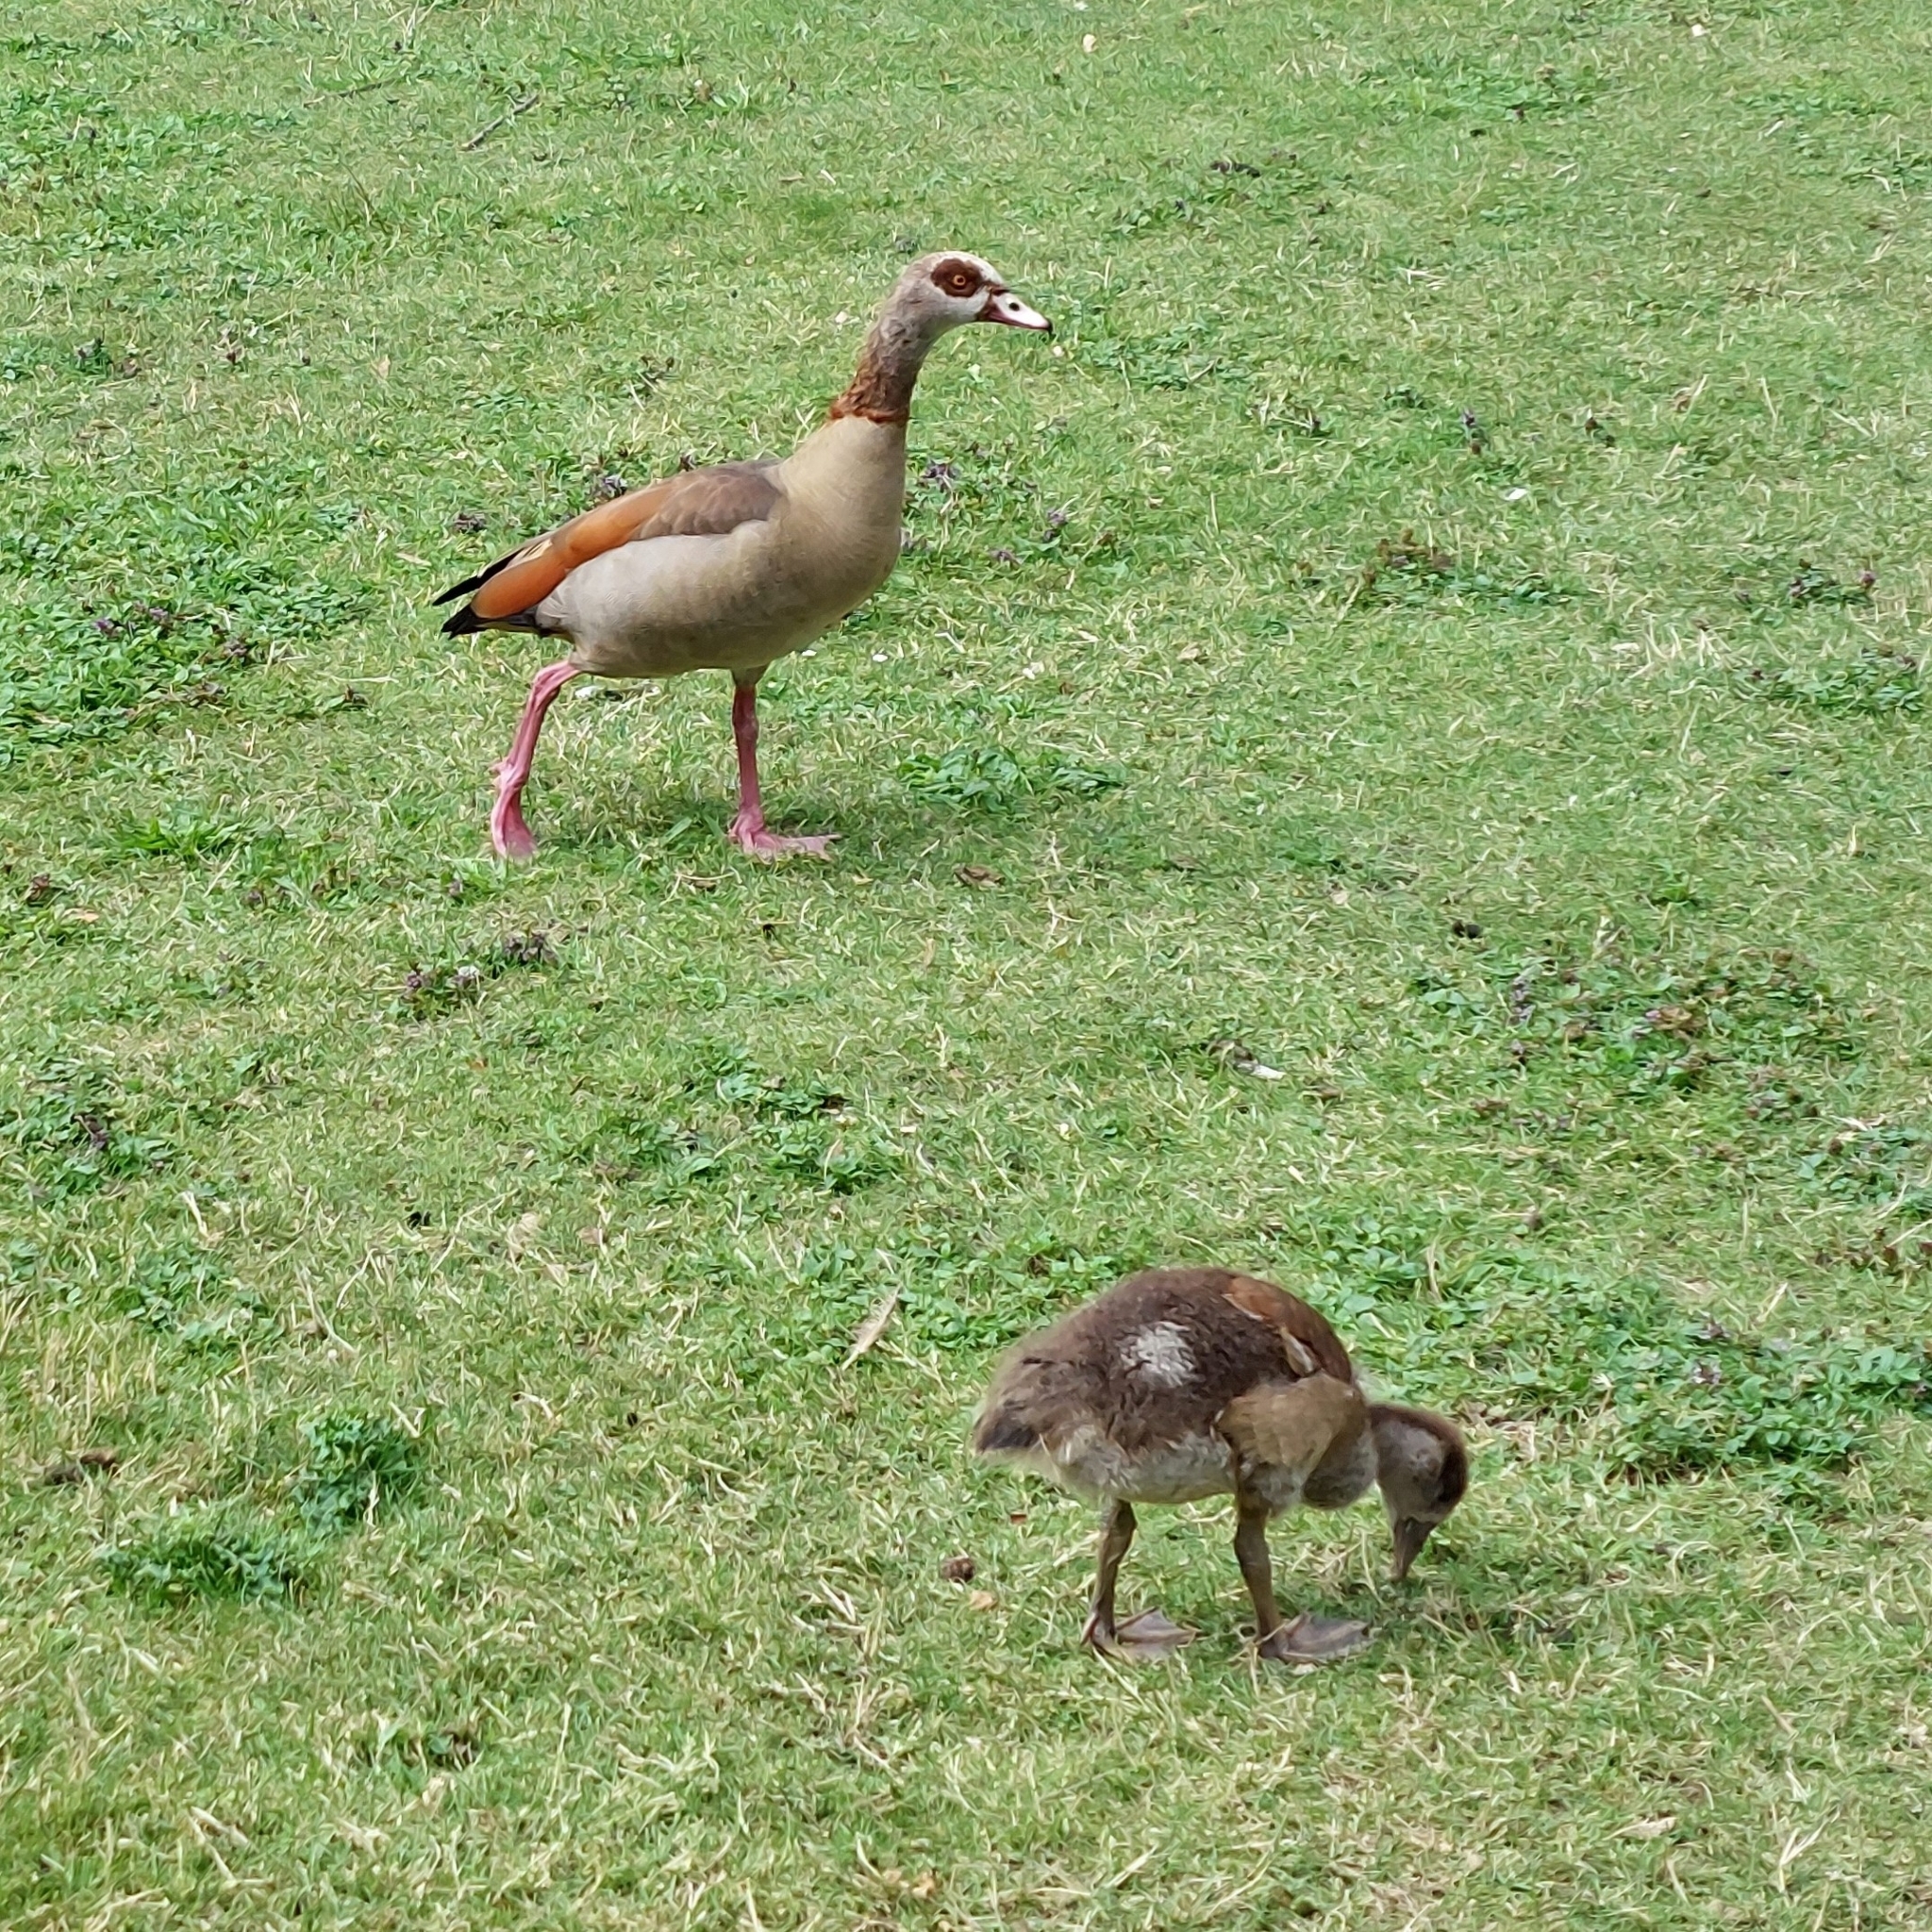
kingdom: Animalia
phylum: Chordata
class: Aves
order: Anseriformes
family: Anatidae
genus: Alopochen
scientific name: Alopochen aegyptiaca
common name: Egyptian goose
